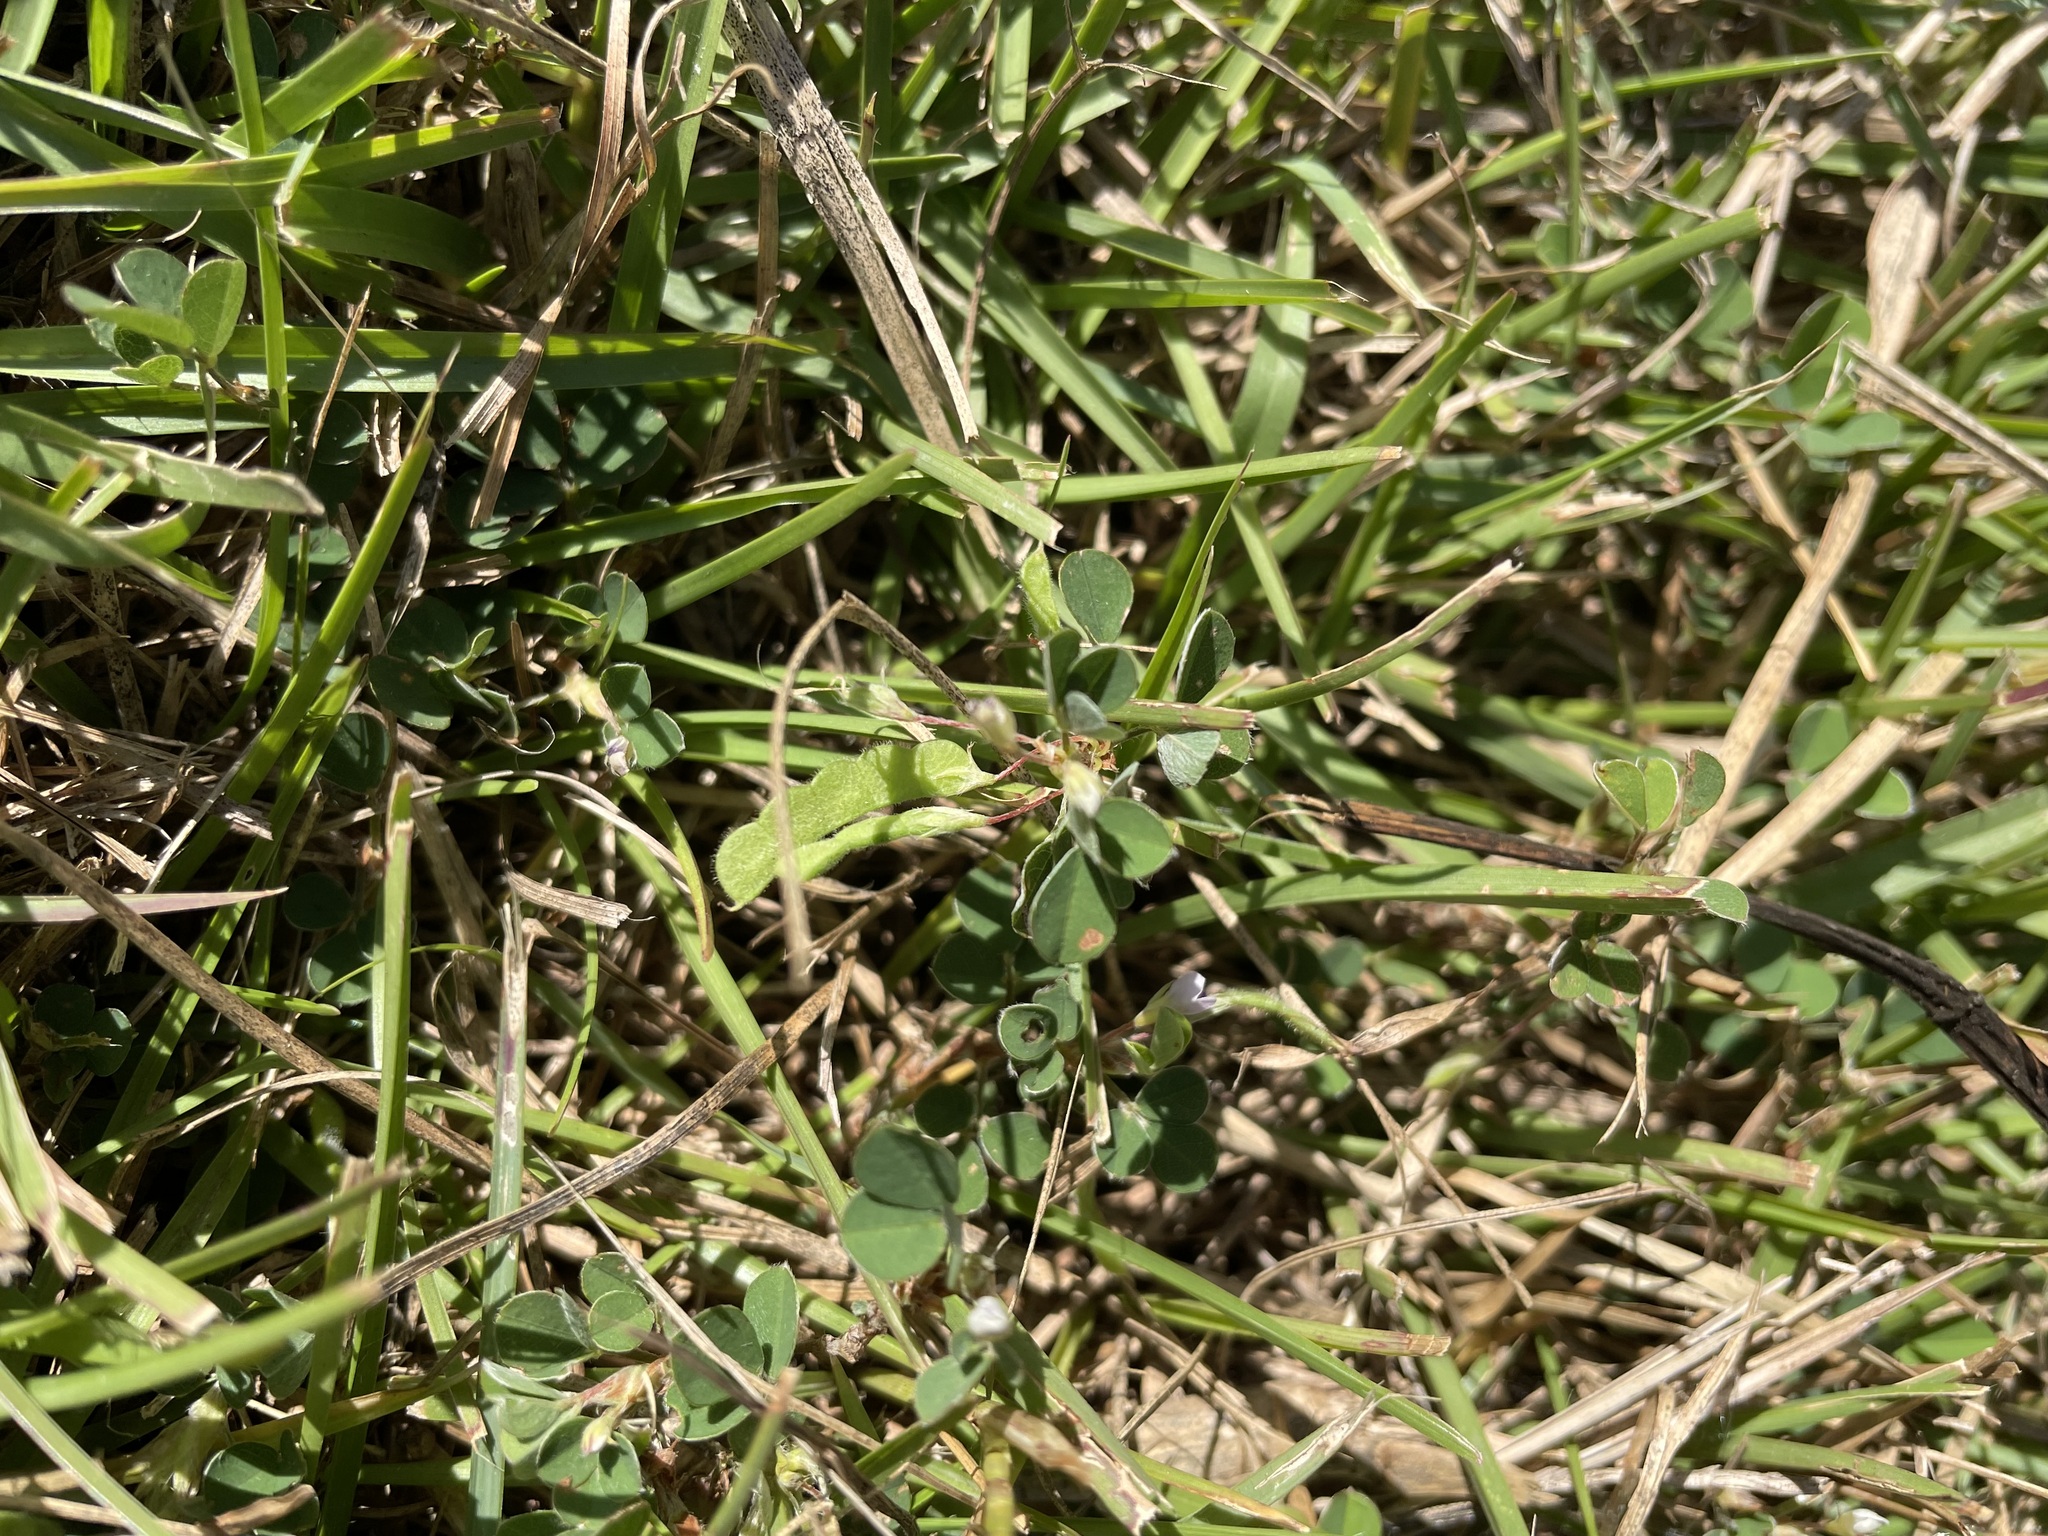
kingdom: Plantae
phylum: Tracheophyta
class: Magnoliopsida
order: Fabales
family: Fabaceae
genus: Grona
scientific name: Grona heterophylla
